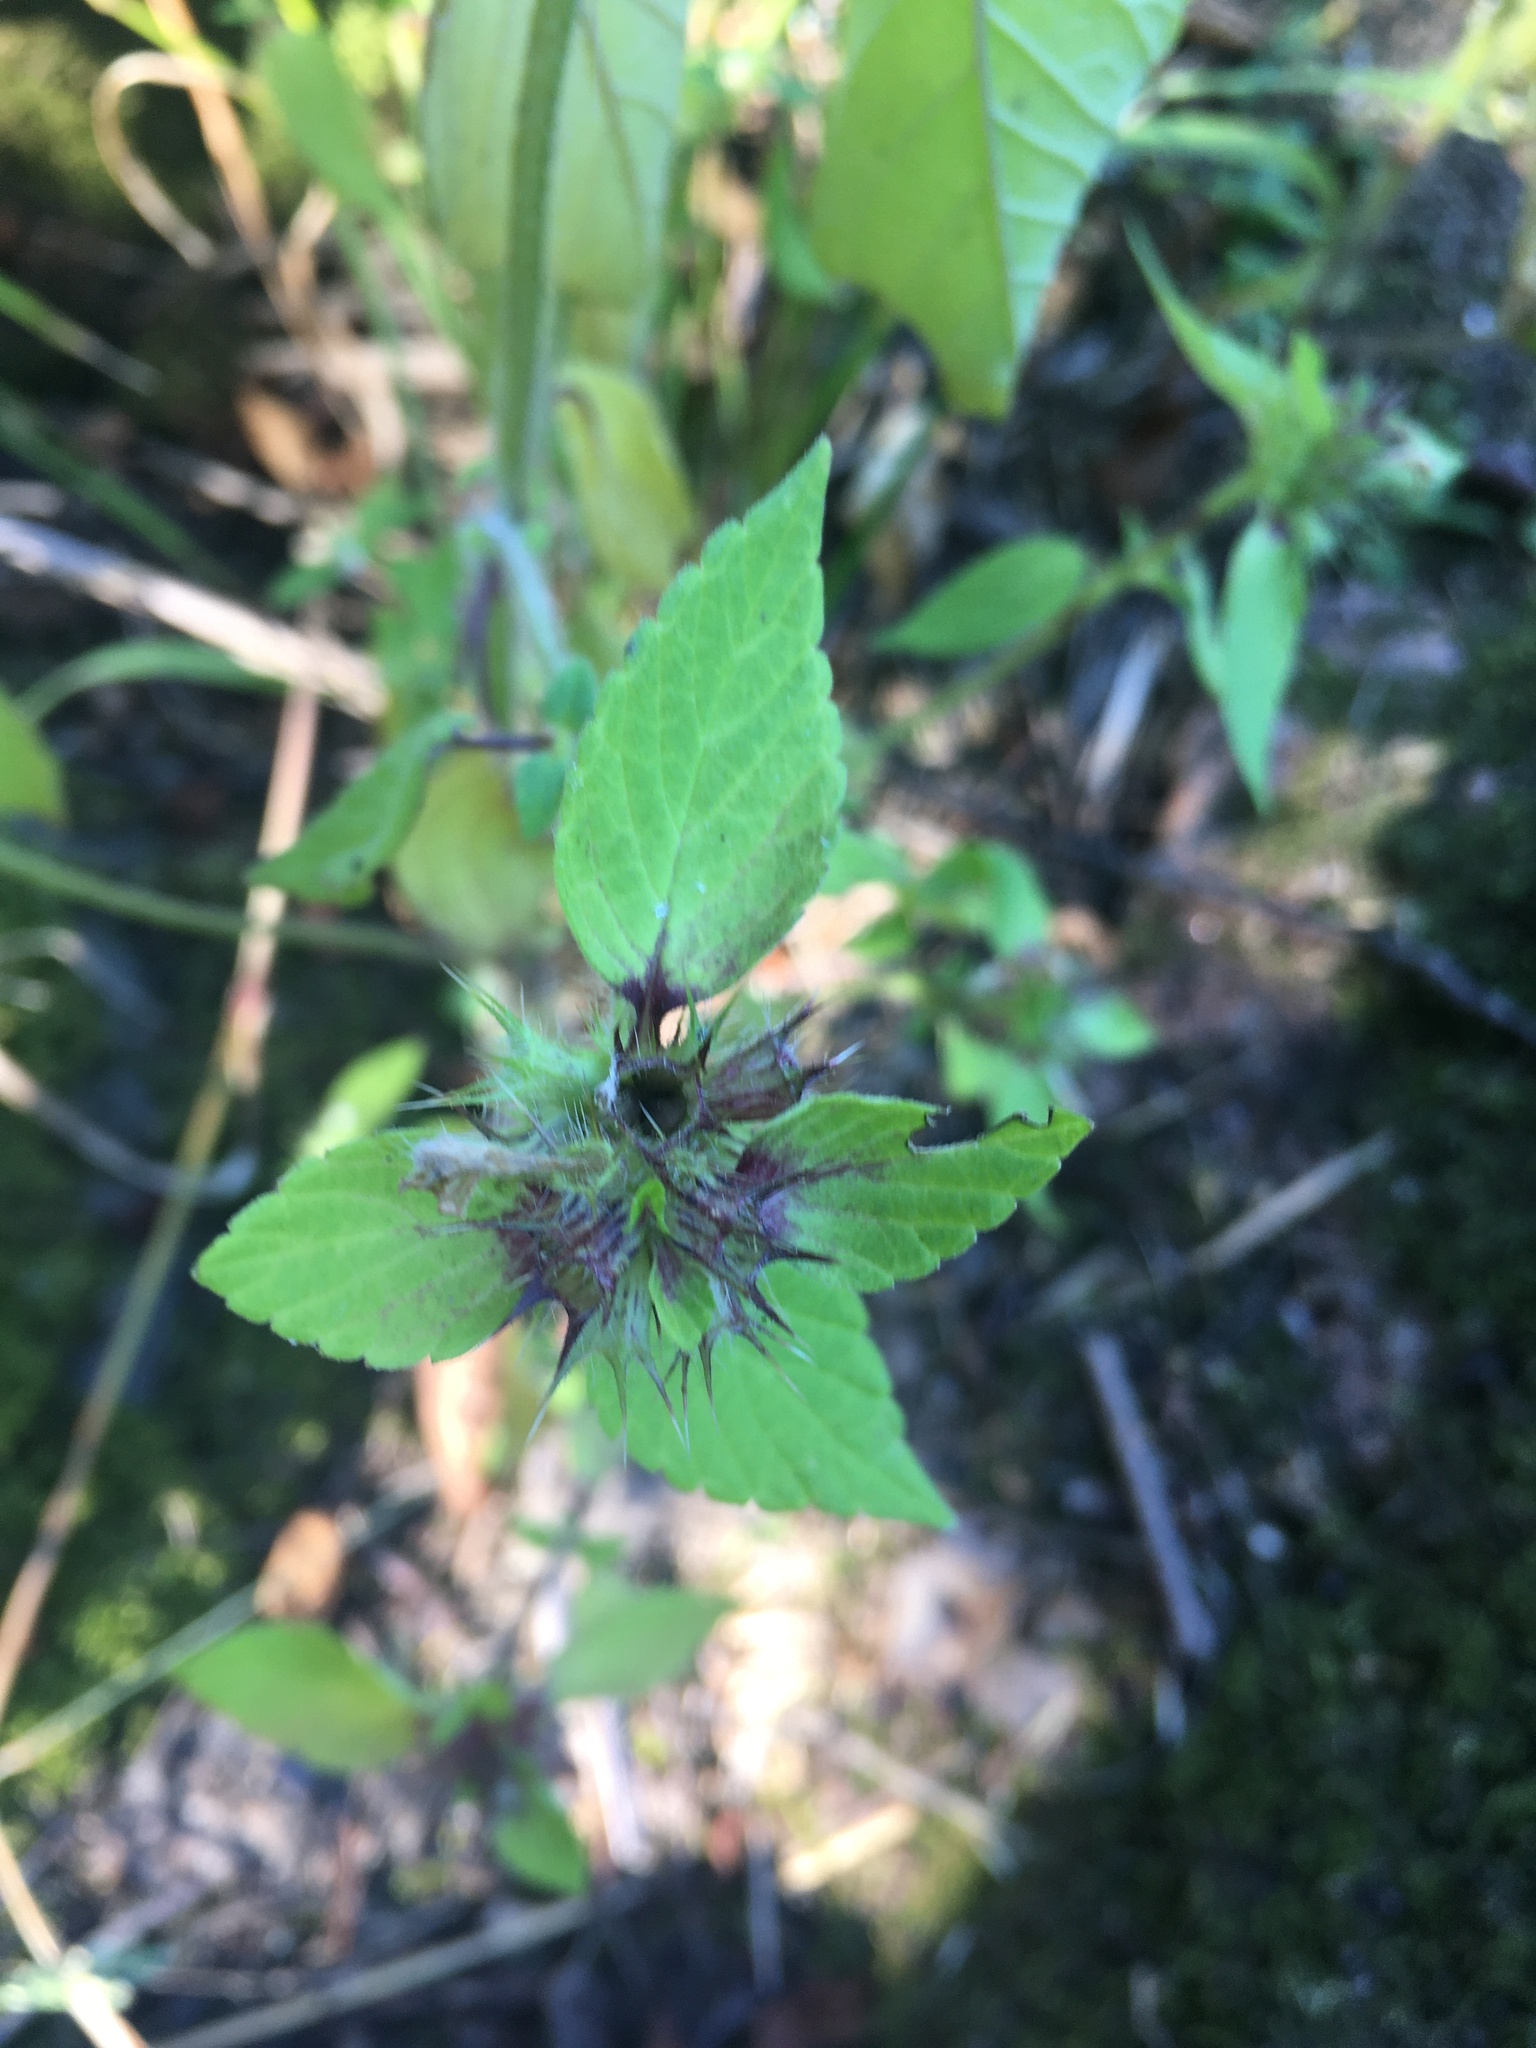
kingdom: Plantae
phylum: Tracheophyta
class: Magnoliopsida
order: Lamiales
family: Lamiaceae
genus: Galeopsis
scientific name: Galeopsis
